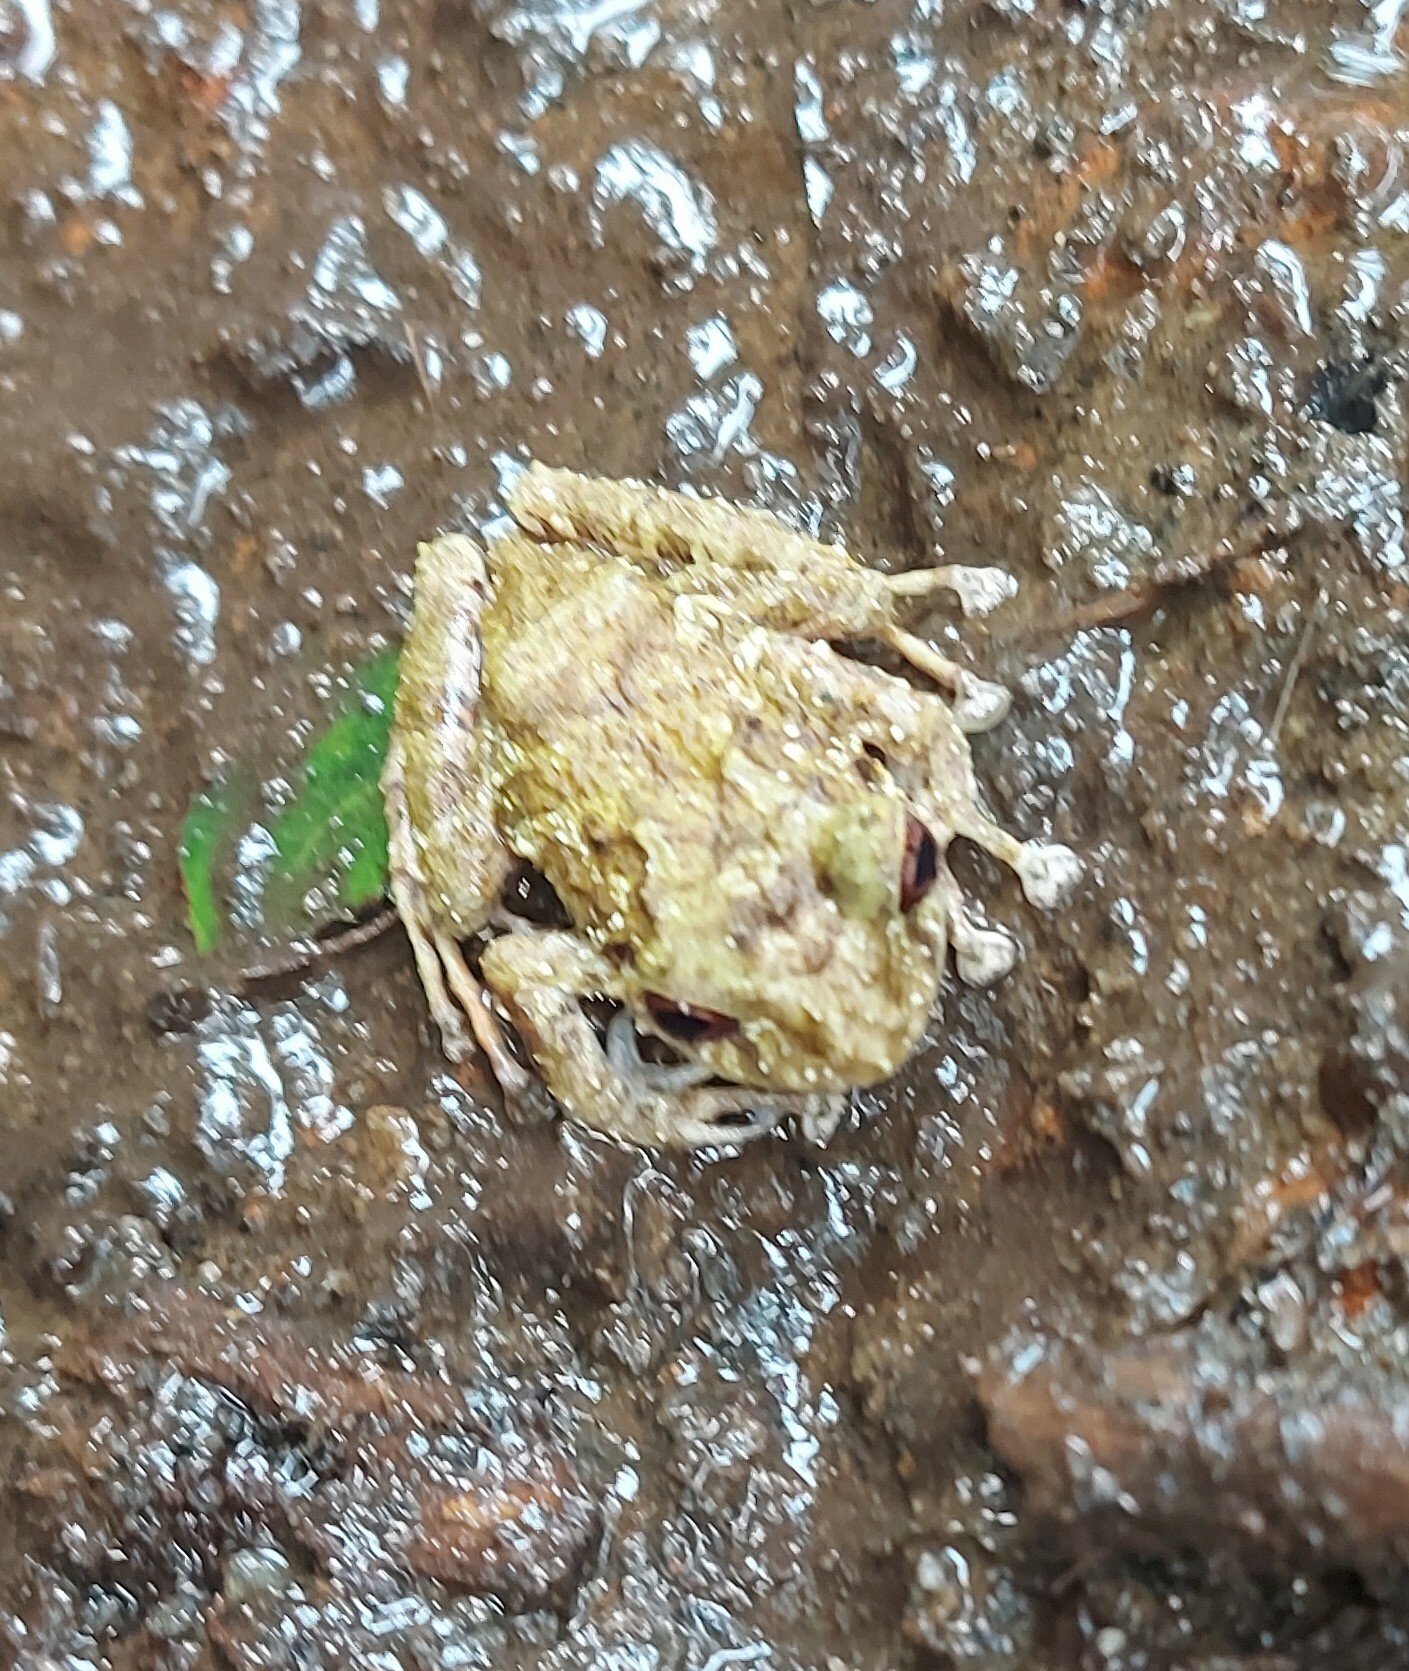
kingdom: Animalia
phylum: Chordata
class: Amphibia
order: Anura
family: Craugastoridae
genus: Craugastor
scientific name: Craugastor megacephalus
